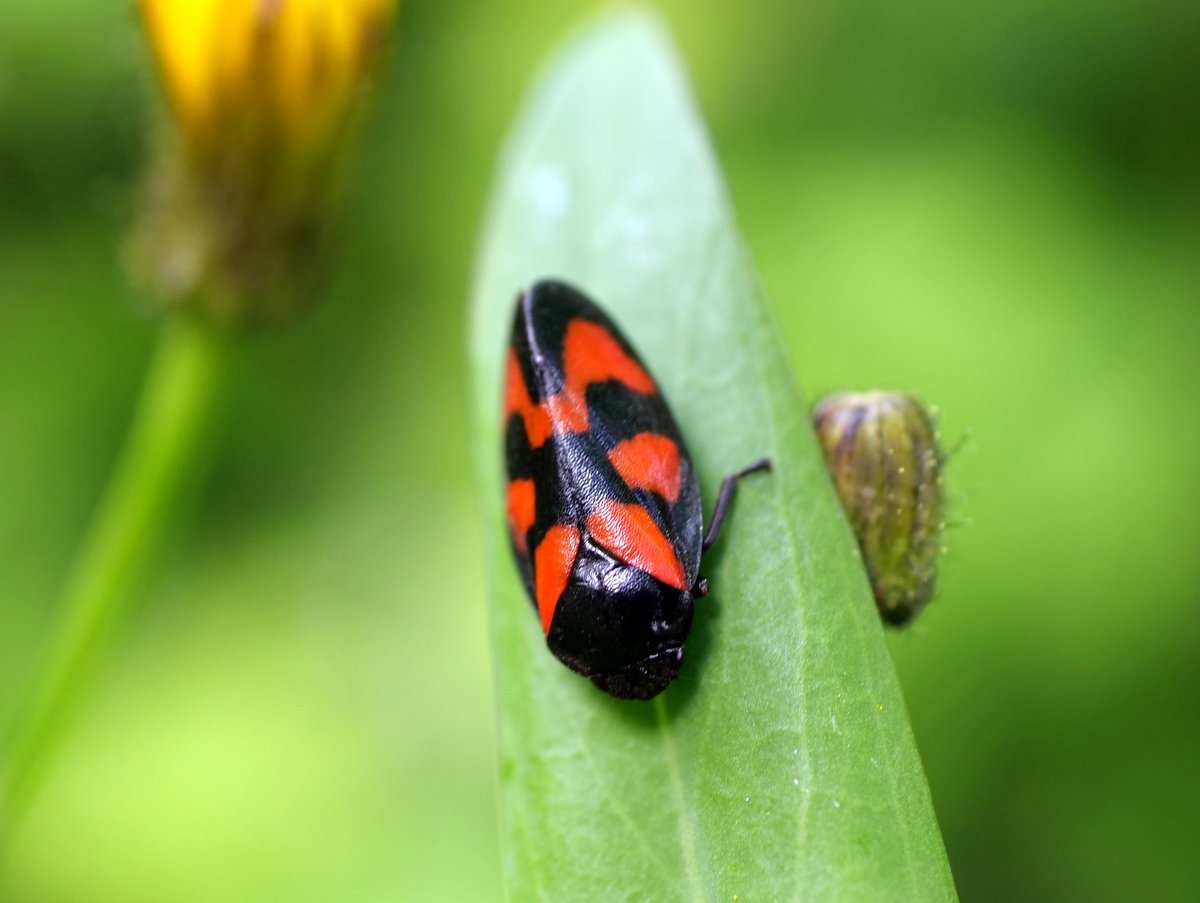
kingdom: Animalia
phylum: Arthropoda
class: Insecta
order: Hemiptera
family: Cercopidae
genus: Cercopis
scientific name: Cercopis vulnerata
